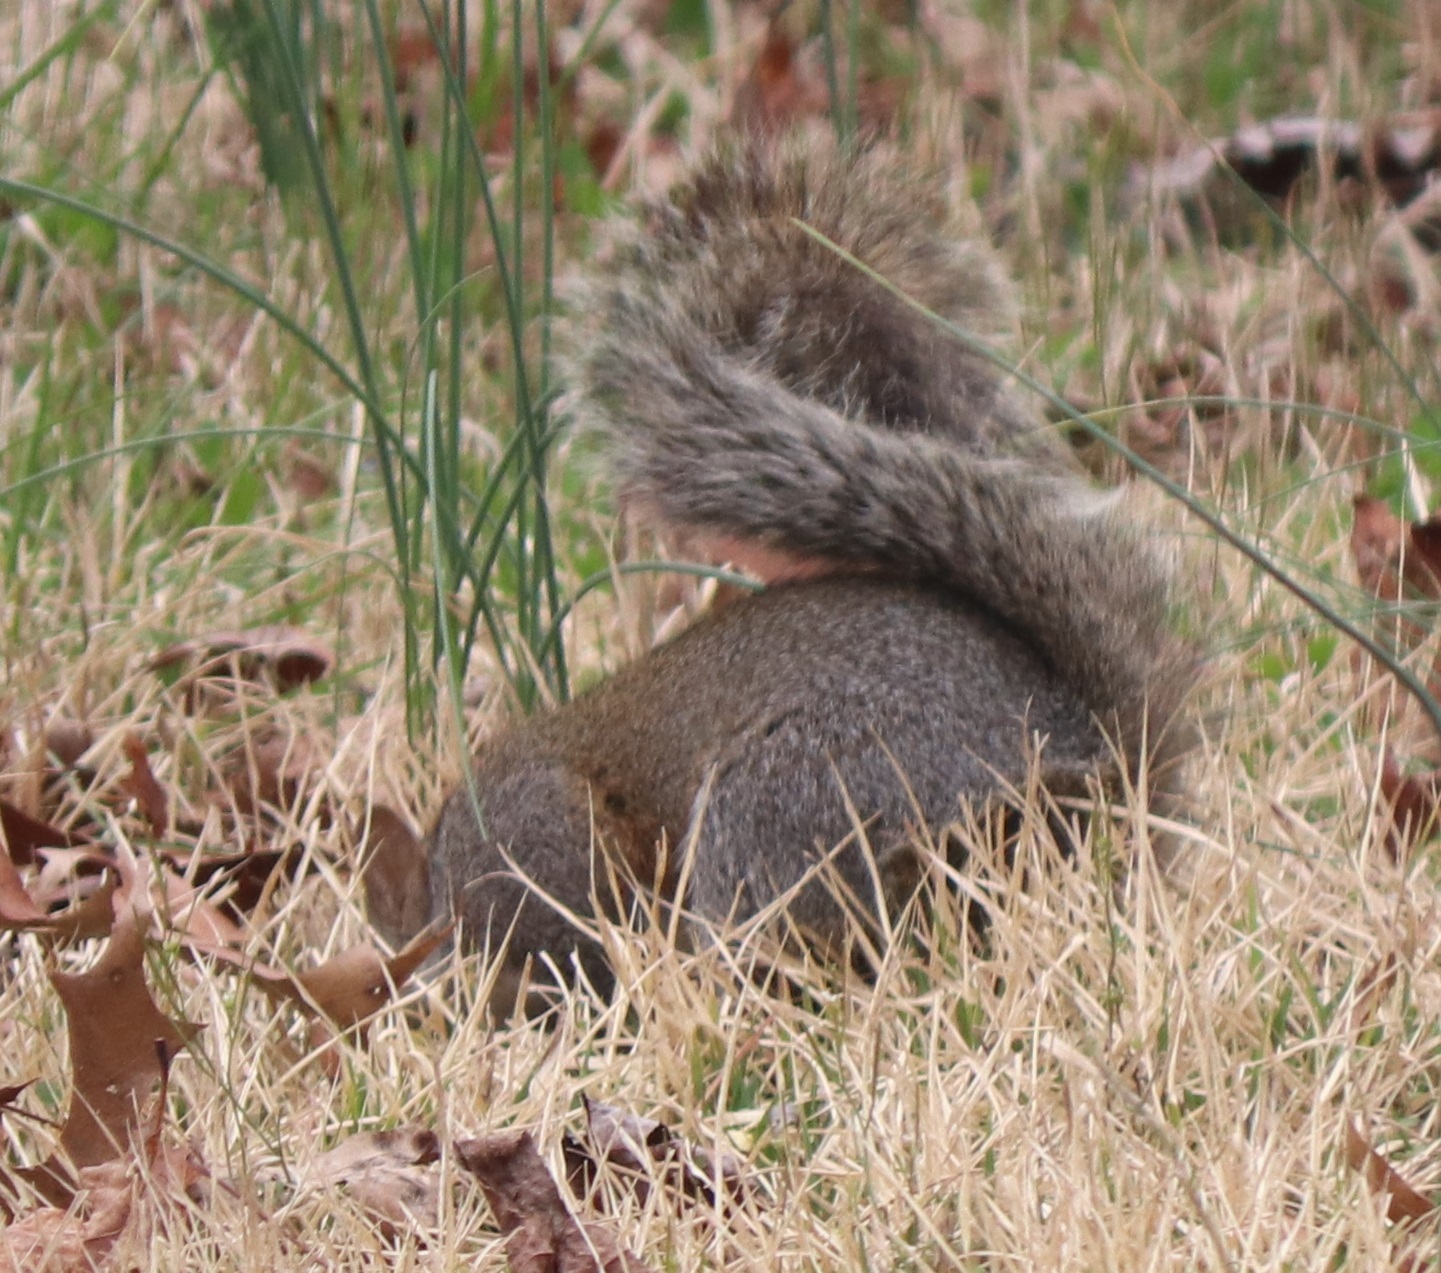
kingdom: Animalia
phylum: Chordata
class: Mammalia
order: Rodentia
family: Sciuridae
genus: Sciurus
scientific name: Sciurus carolinensis
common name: Eastern gray squirrel
